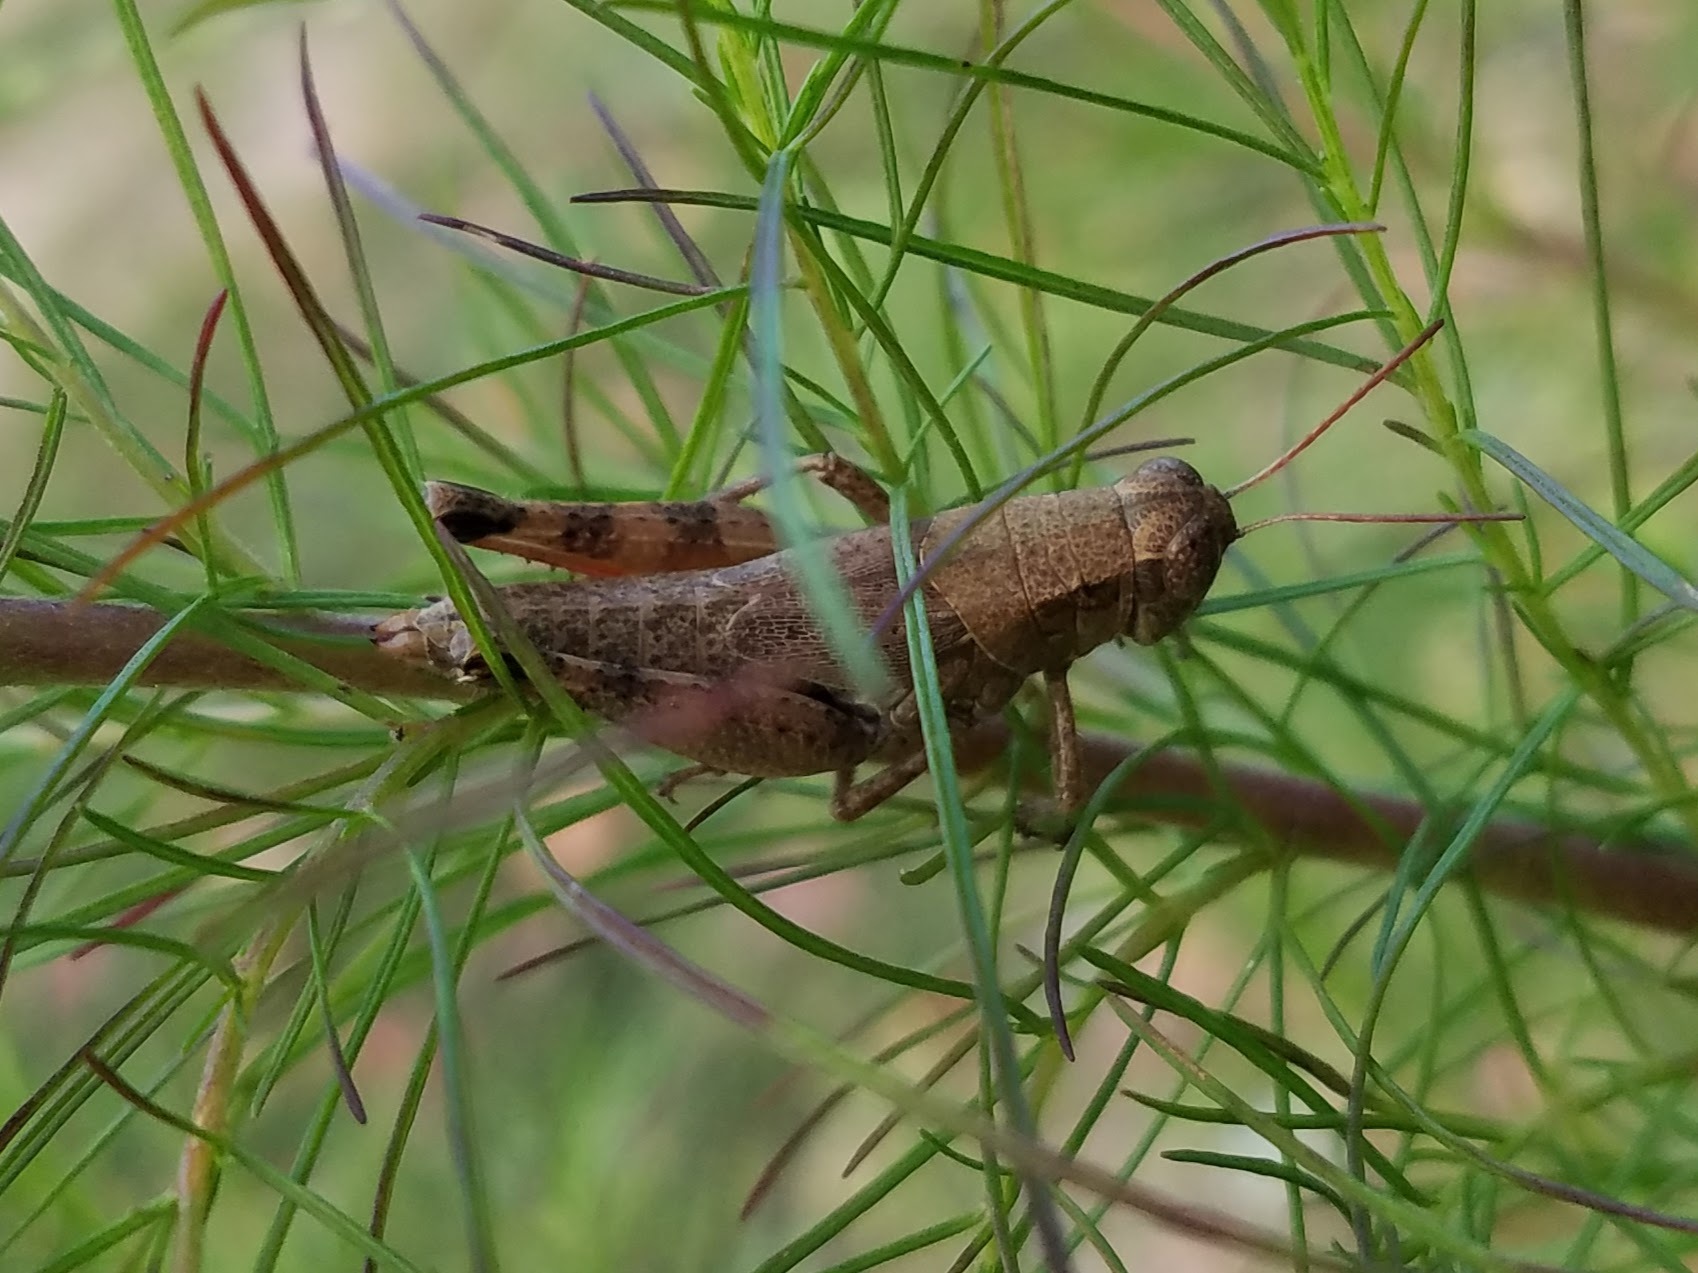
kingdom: Animalia
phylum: Arthropoda
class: Insecta
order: Orthoptera
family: Acrididae
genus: Melanoplus
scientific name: Melanoplus scudderi
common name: Scudder's short-winged locust
